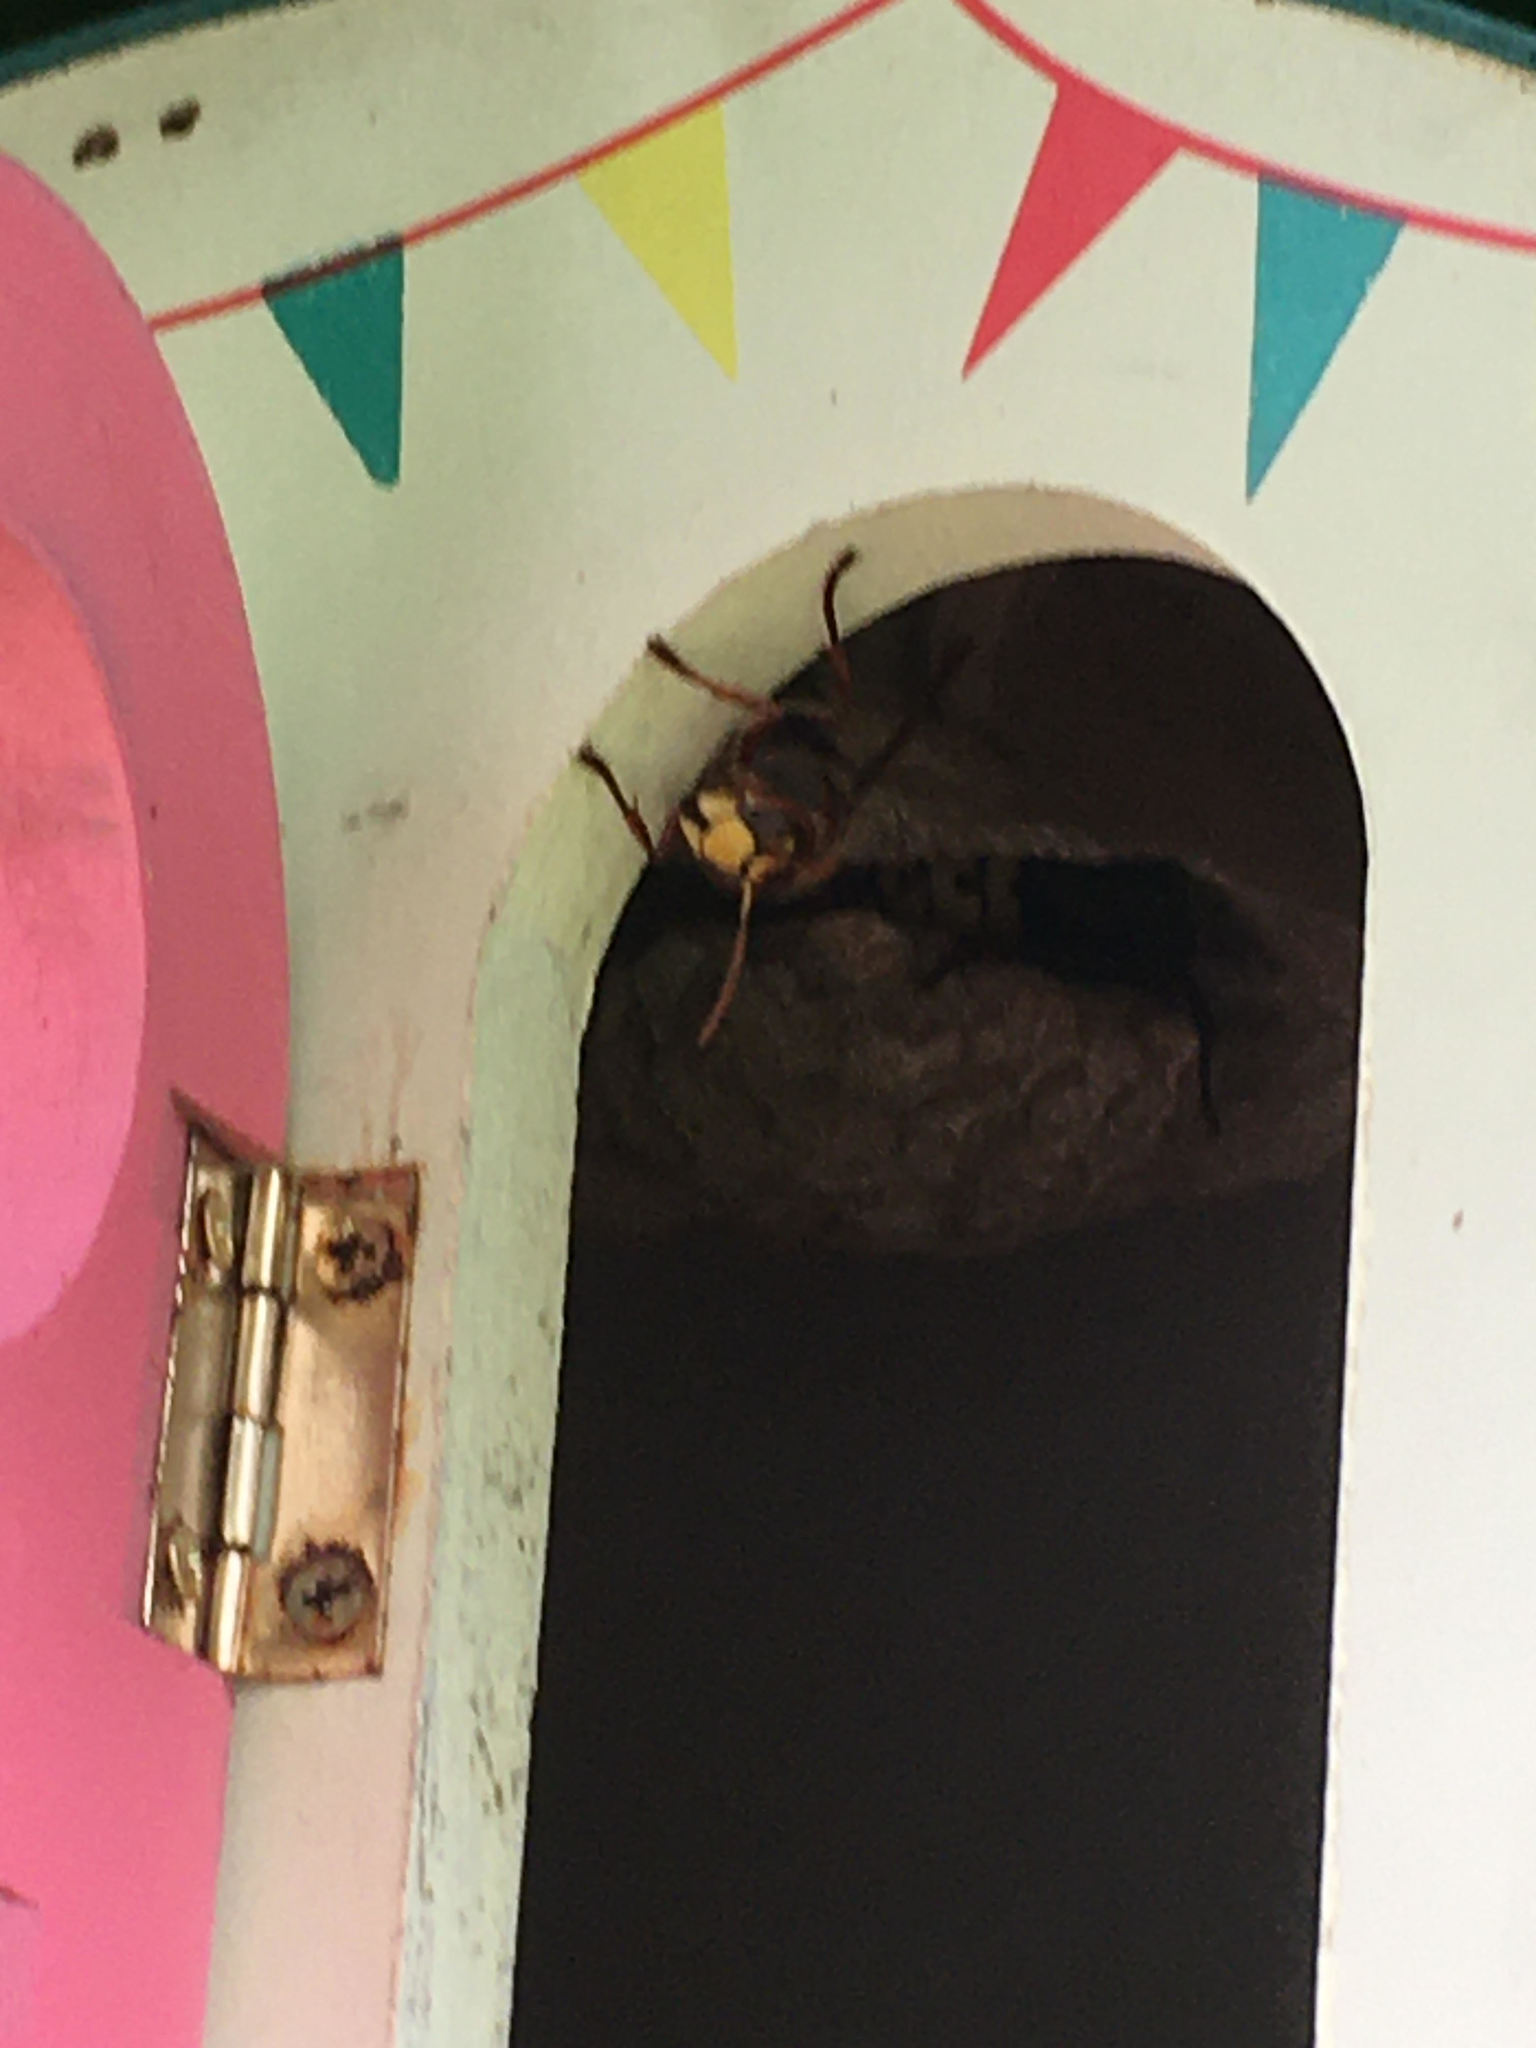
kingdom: Animalia
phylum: Arthropoda
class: Insecta
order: Hymenoptera
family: Vespidae
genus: Vespa
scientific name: Vespa crabro
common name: Hornet
